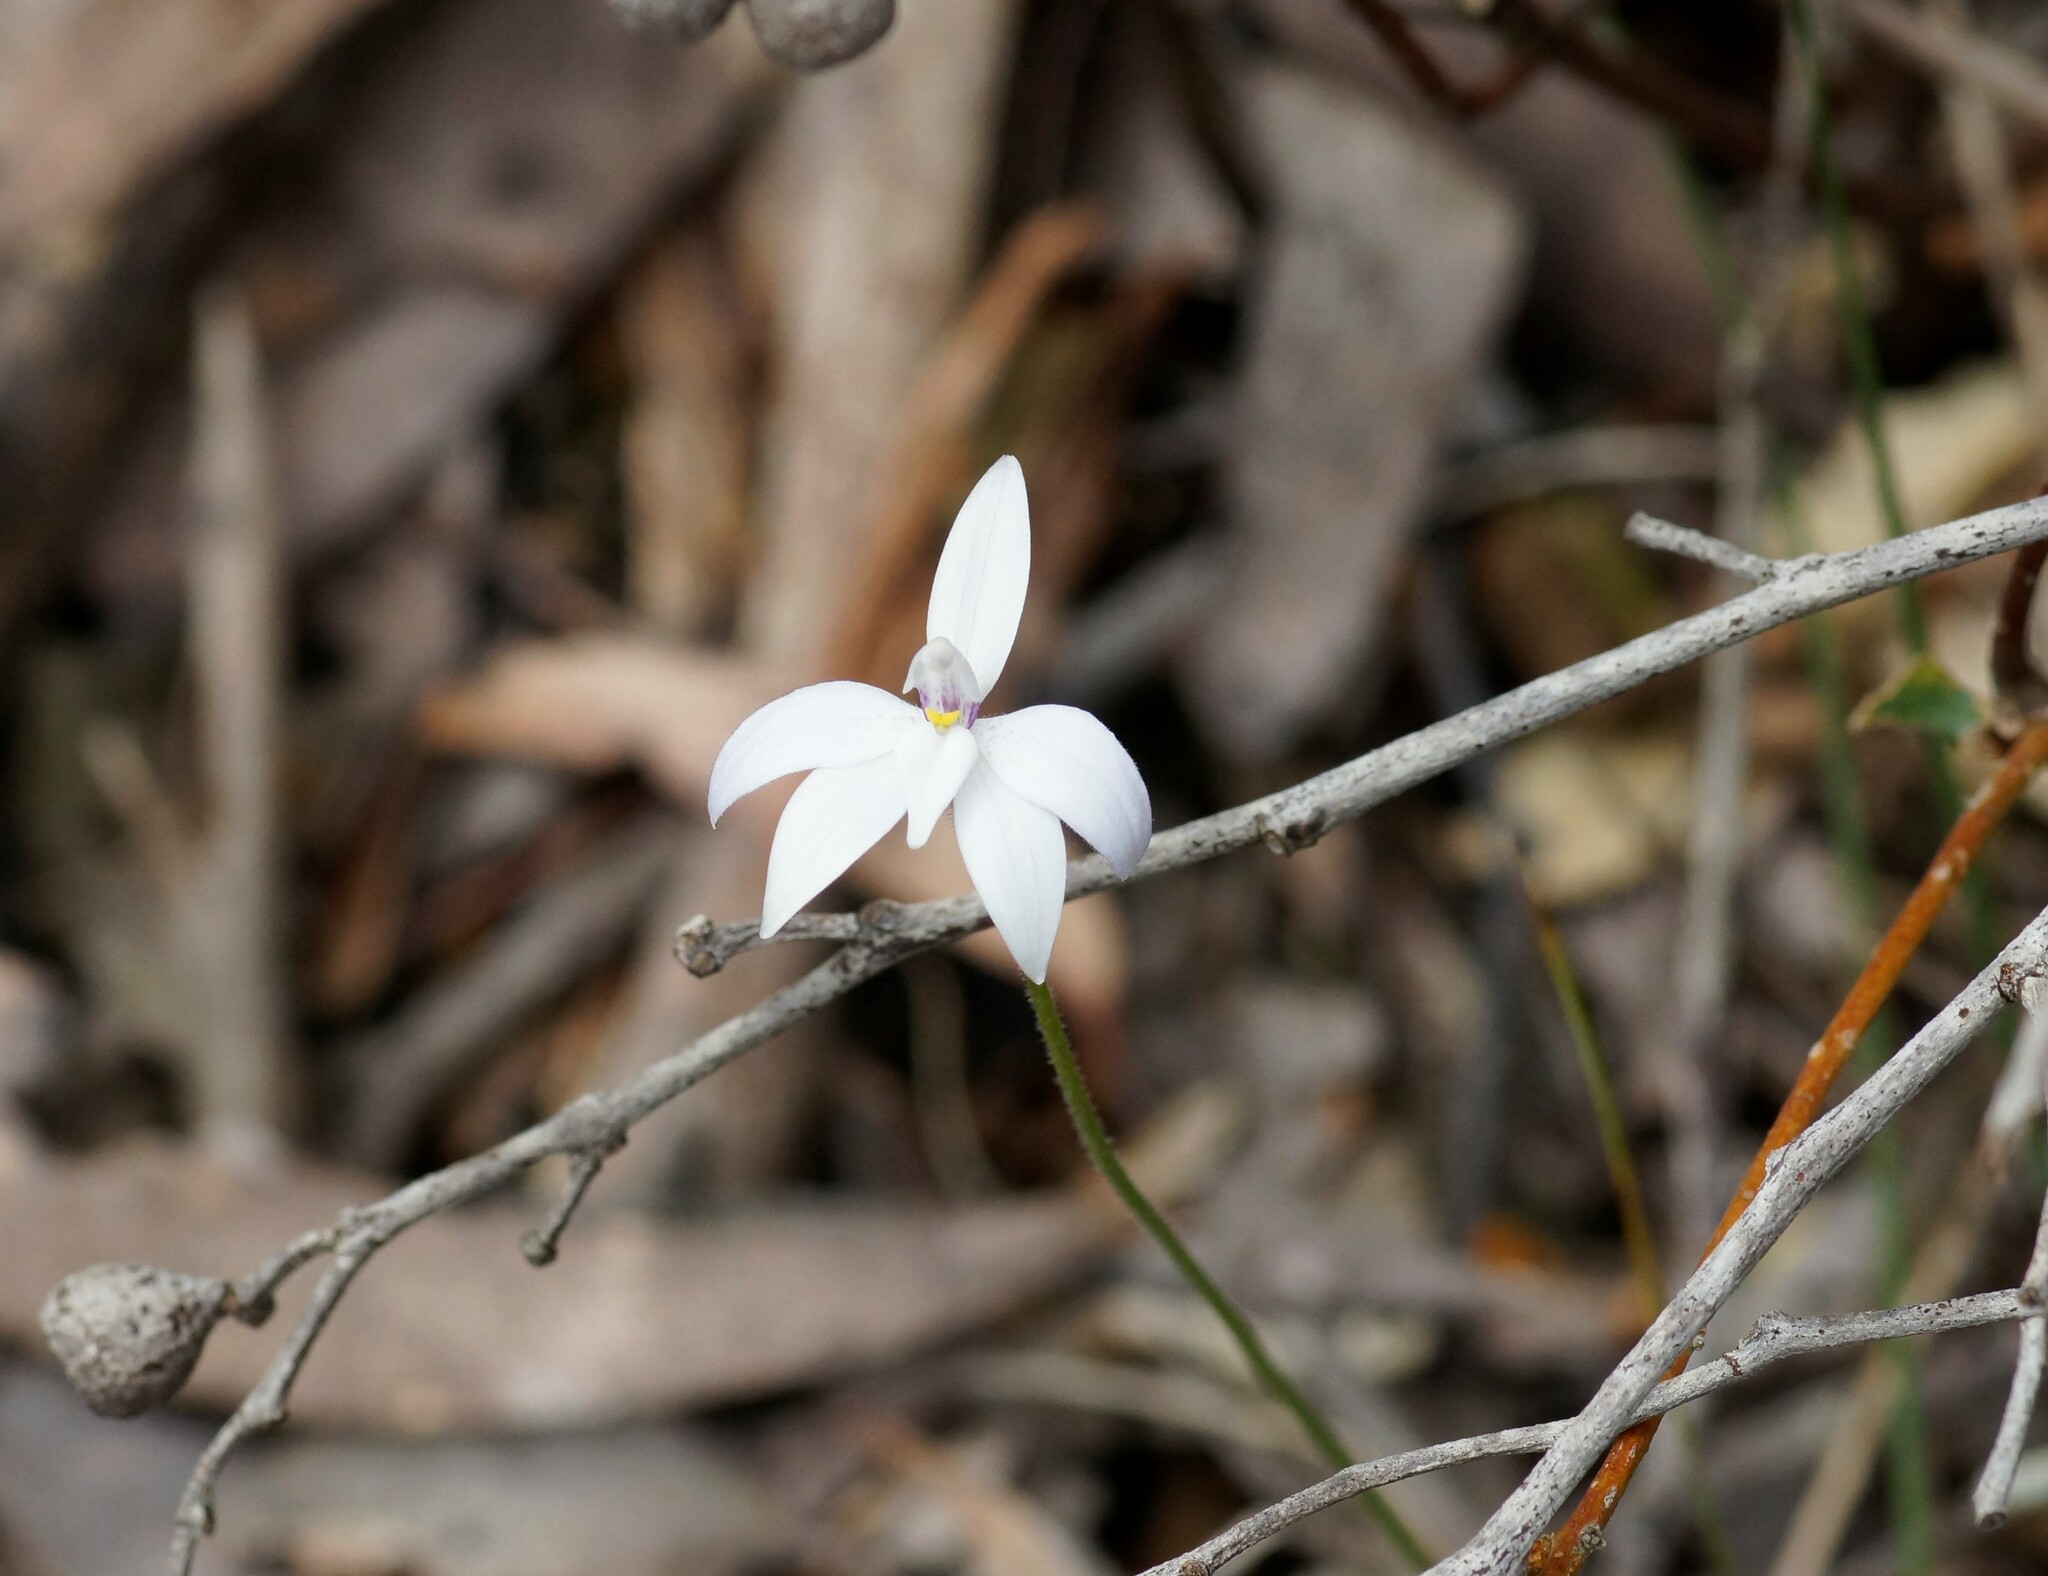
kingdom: Plantae
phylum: Tracheophyta
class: Liliopsida
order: Asparagales
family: Orchidaceae
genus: Caladenia
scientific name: Caladenia major
